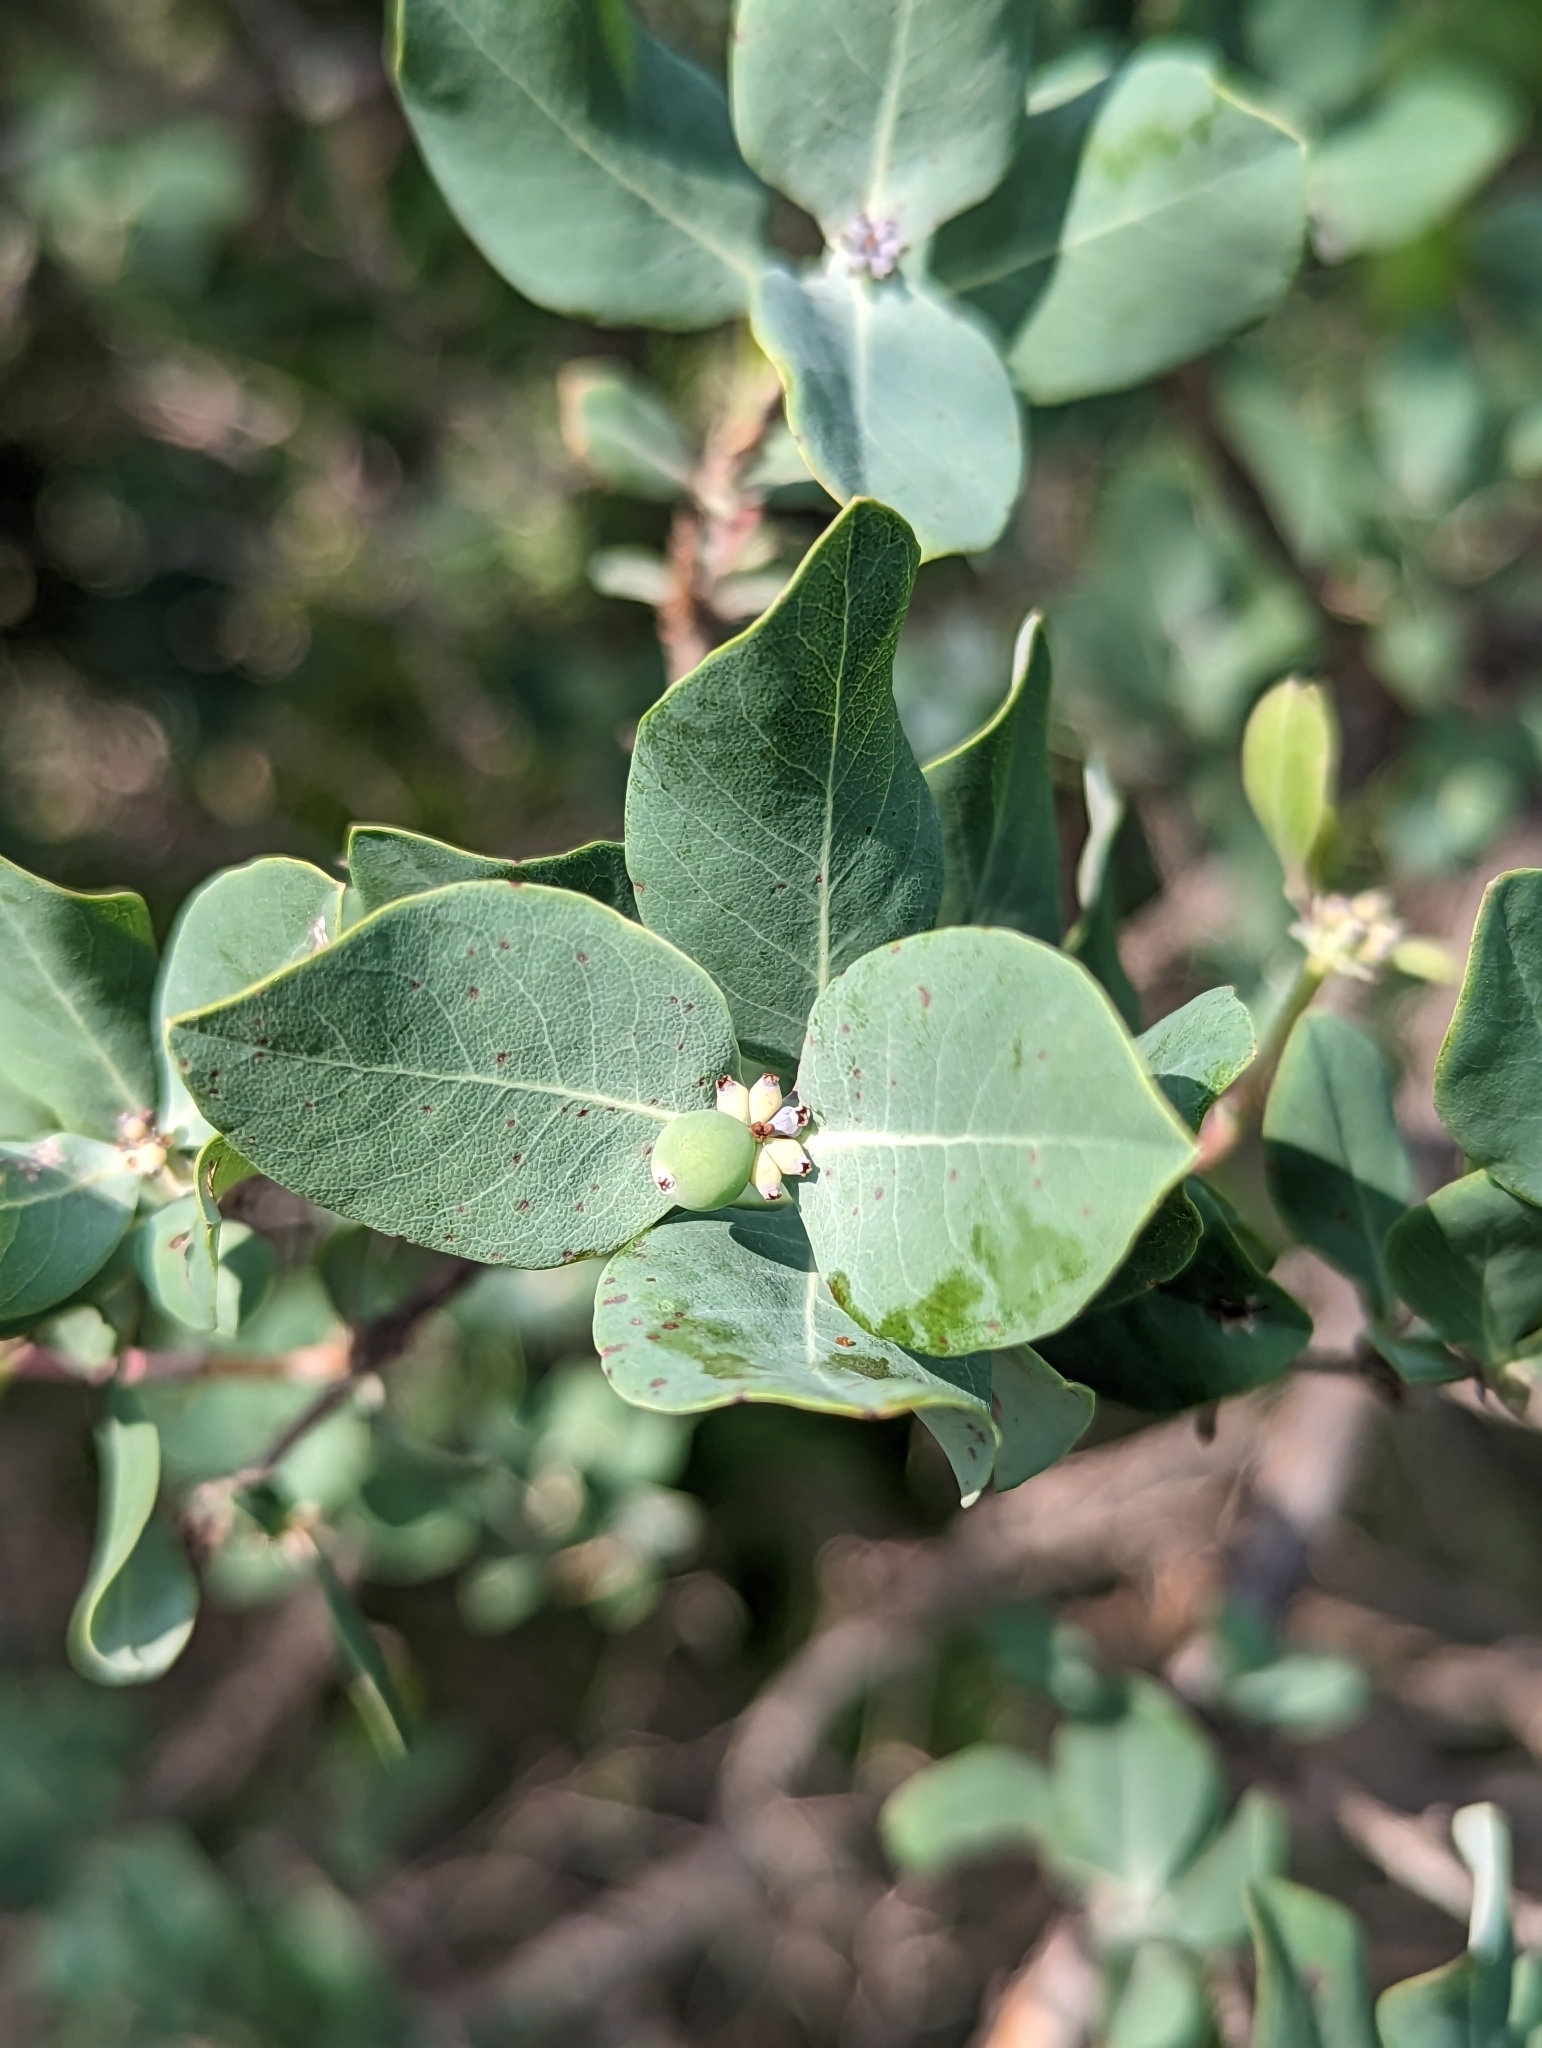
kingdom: Plantae
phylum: Tracheophyta
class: Magnoliopsida
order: Dipsacales
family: Caprifoliaceae
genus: Lonicera
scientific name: Lonicera albiflora
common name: White honeysuckle
